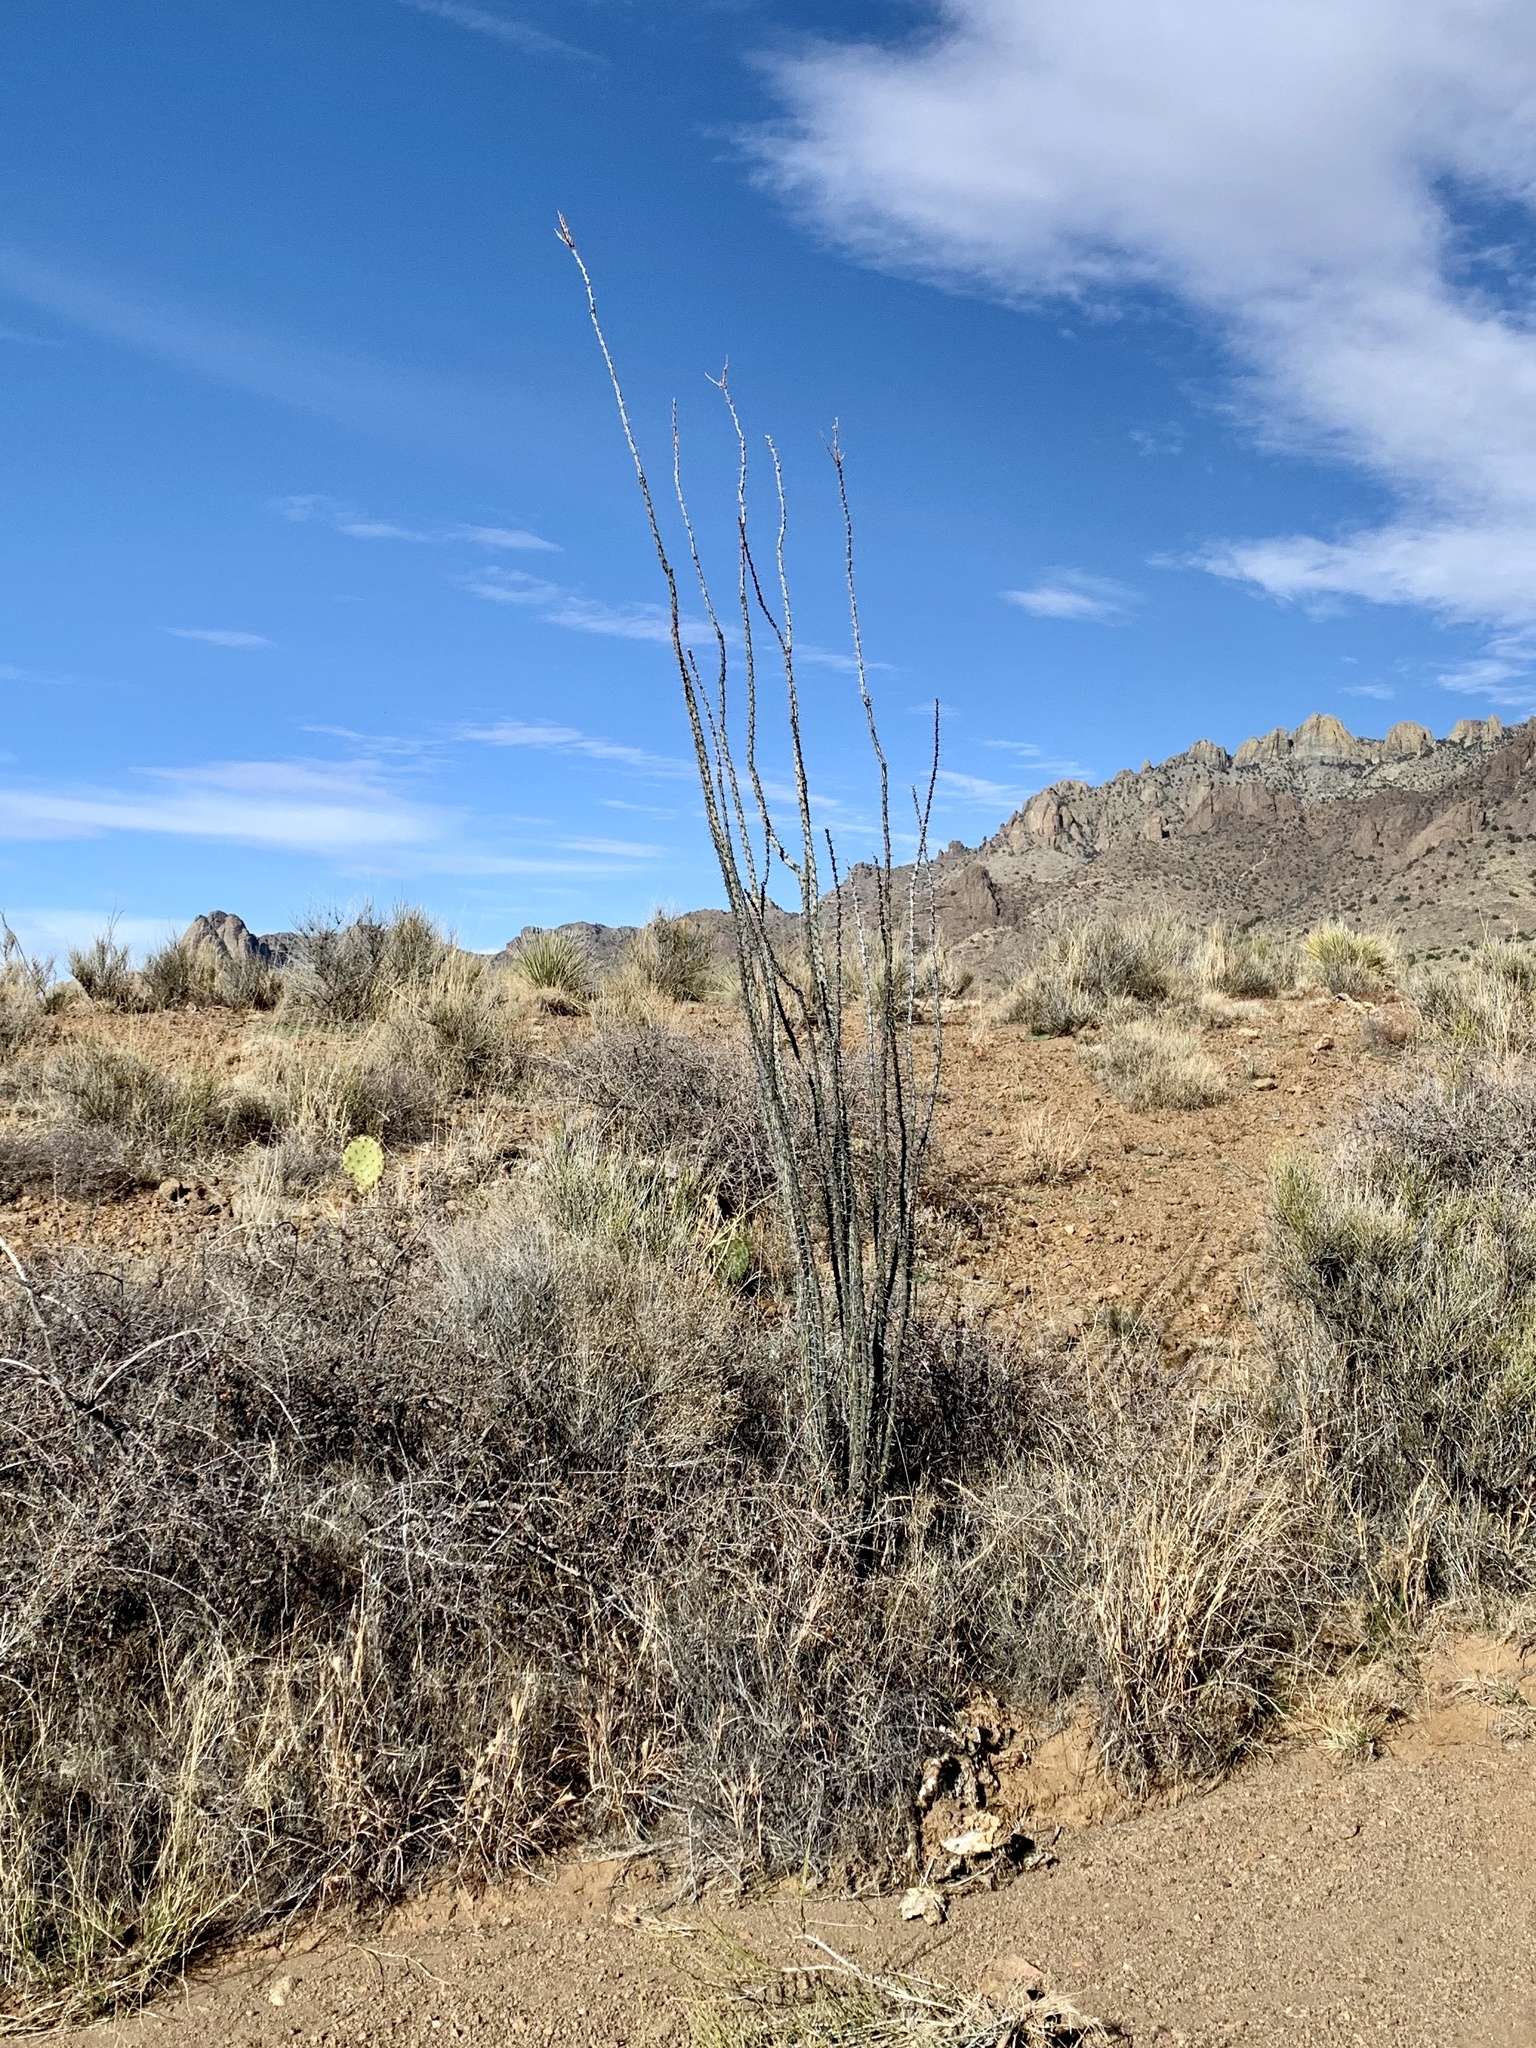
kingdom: Plantae
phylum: Tracheophyta
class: Magnoliopsida
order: Ericales
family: Fouquieriaceae
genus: Fouquieria
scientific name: Fouquieria splendens
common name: Vine-cactus
